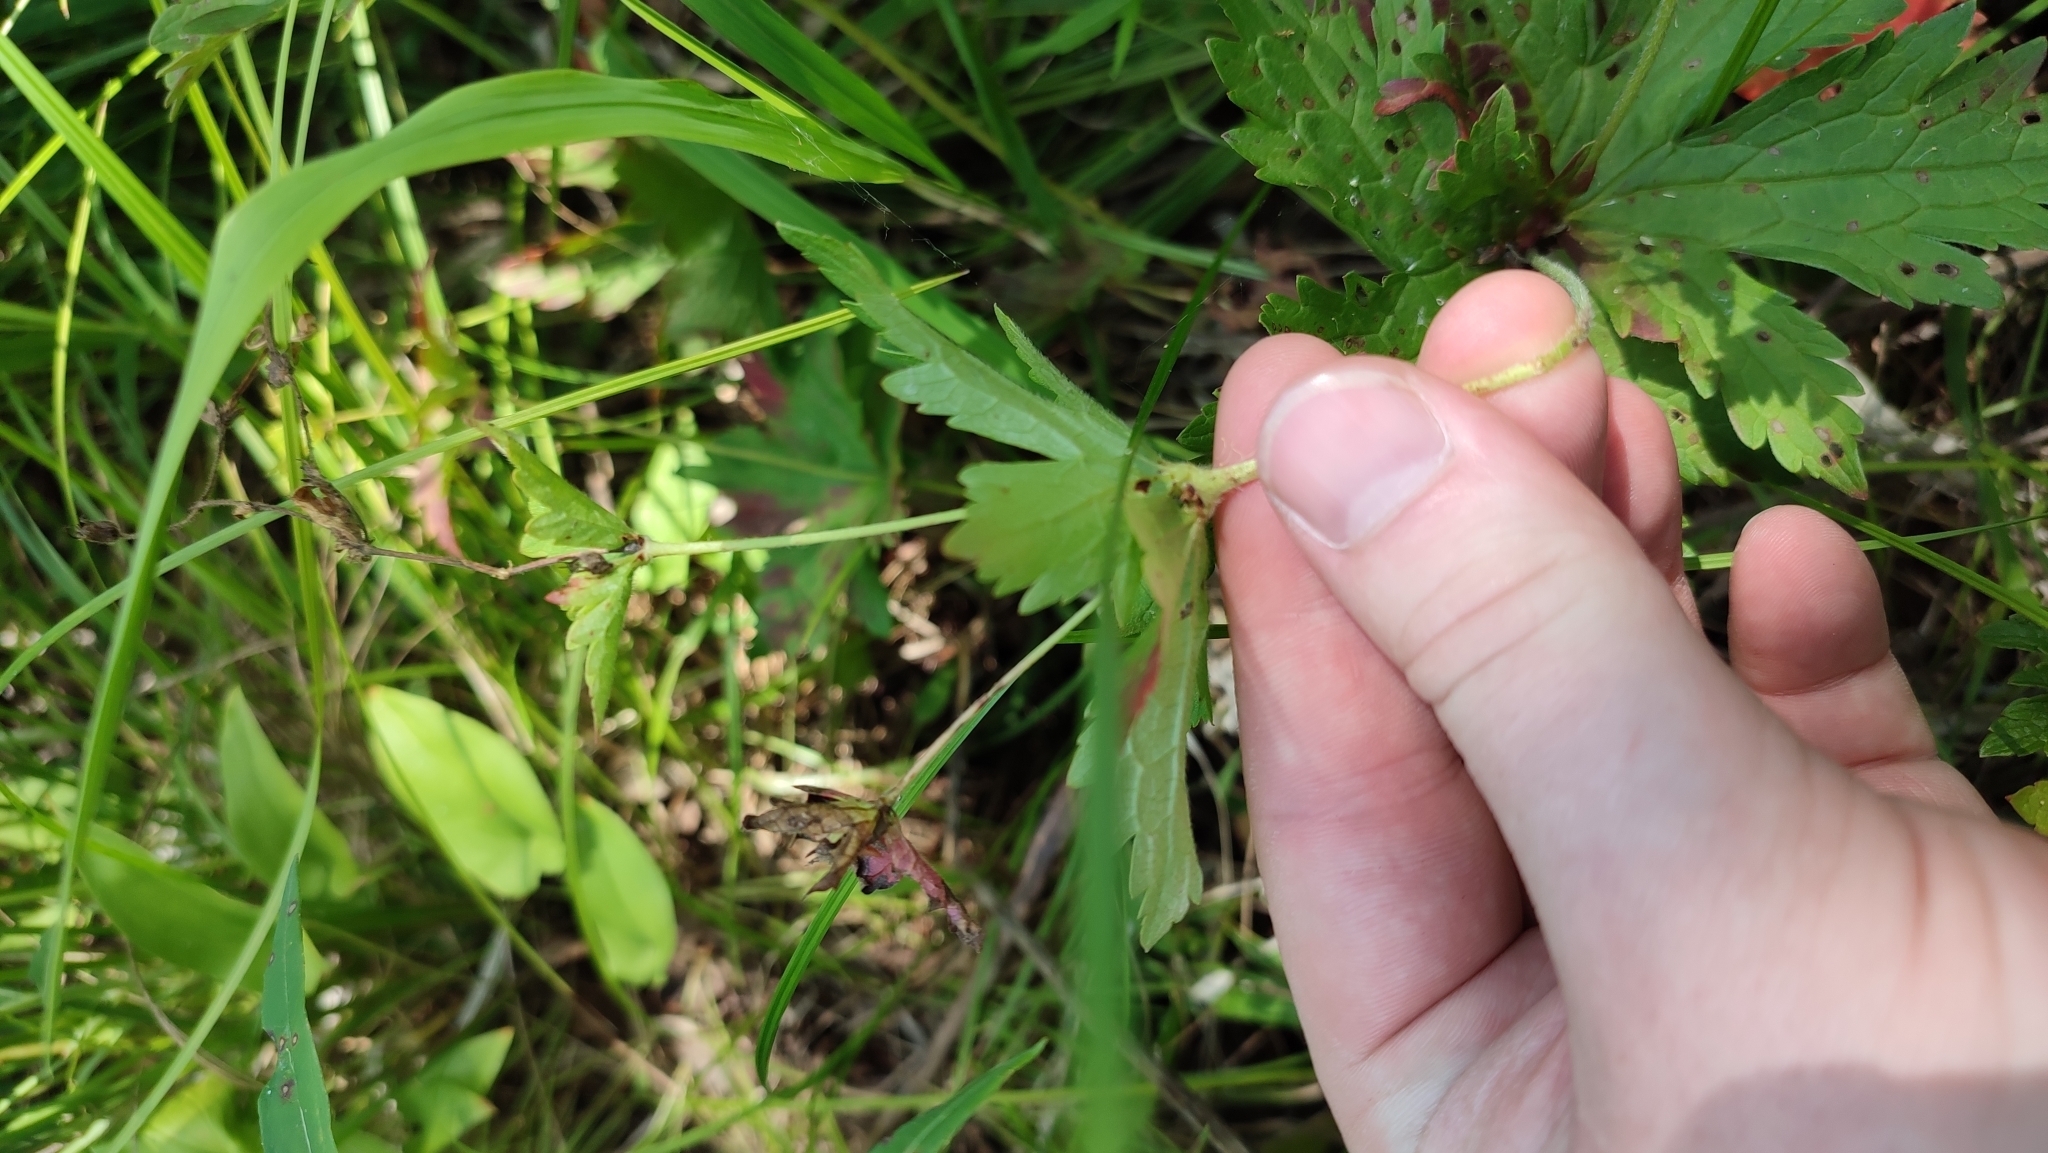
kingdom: Plantae
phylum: Tracheophyta
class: Magnoliopsida
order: Geraniales
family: Geraniaceae
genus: Geranium
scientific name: Geranium sylvaticum
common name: Wood crane's-bill
